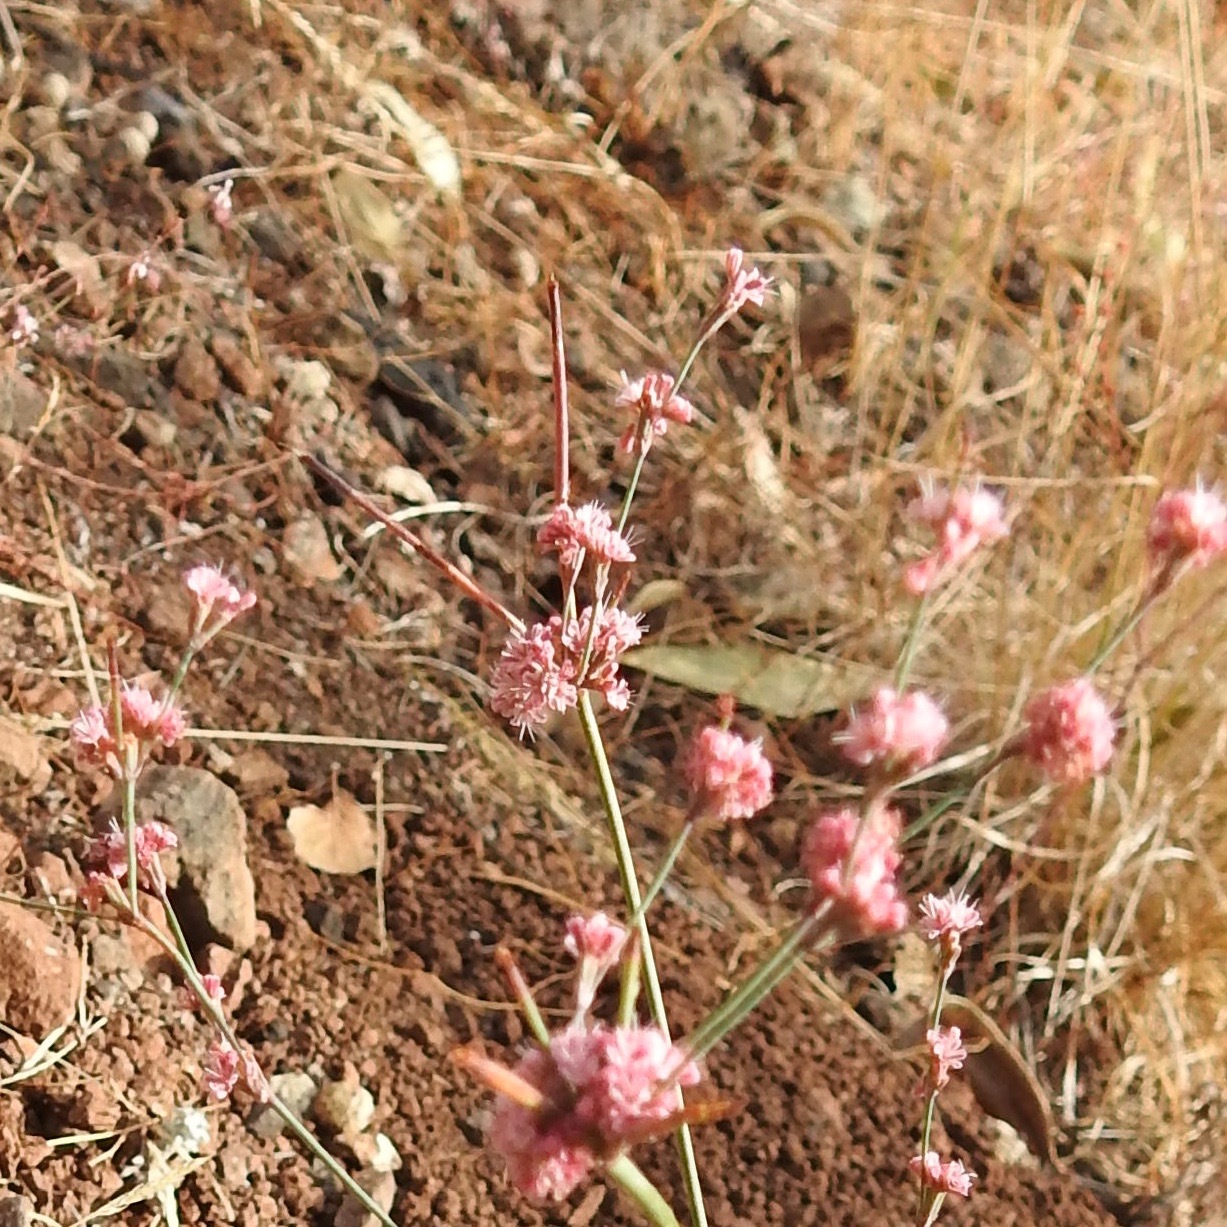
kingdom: Plantae
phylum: Tracheophyta
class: Magnoliopsida
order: Caryophyllales
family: Polygonaceae
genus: Eriogonum
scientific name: Eriogonum luteolum
